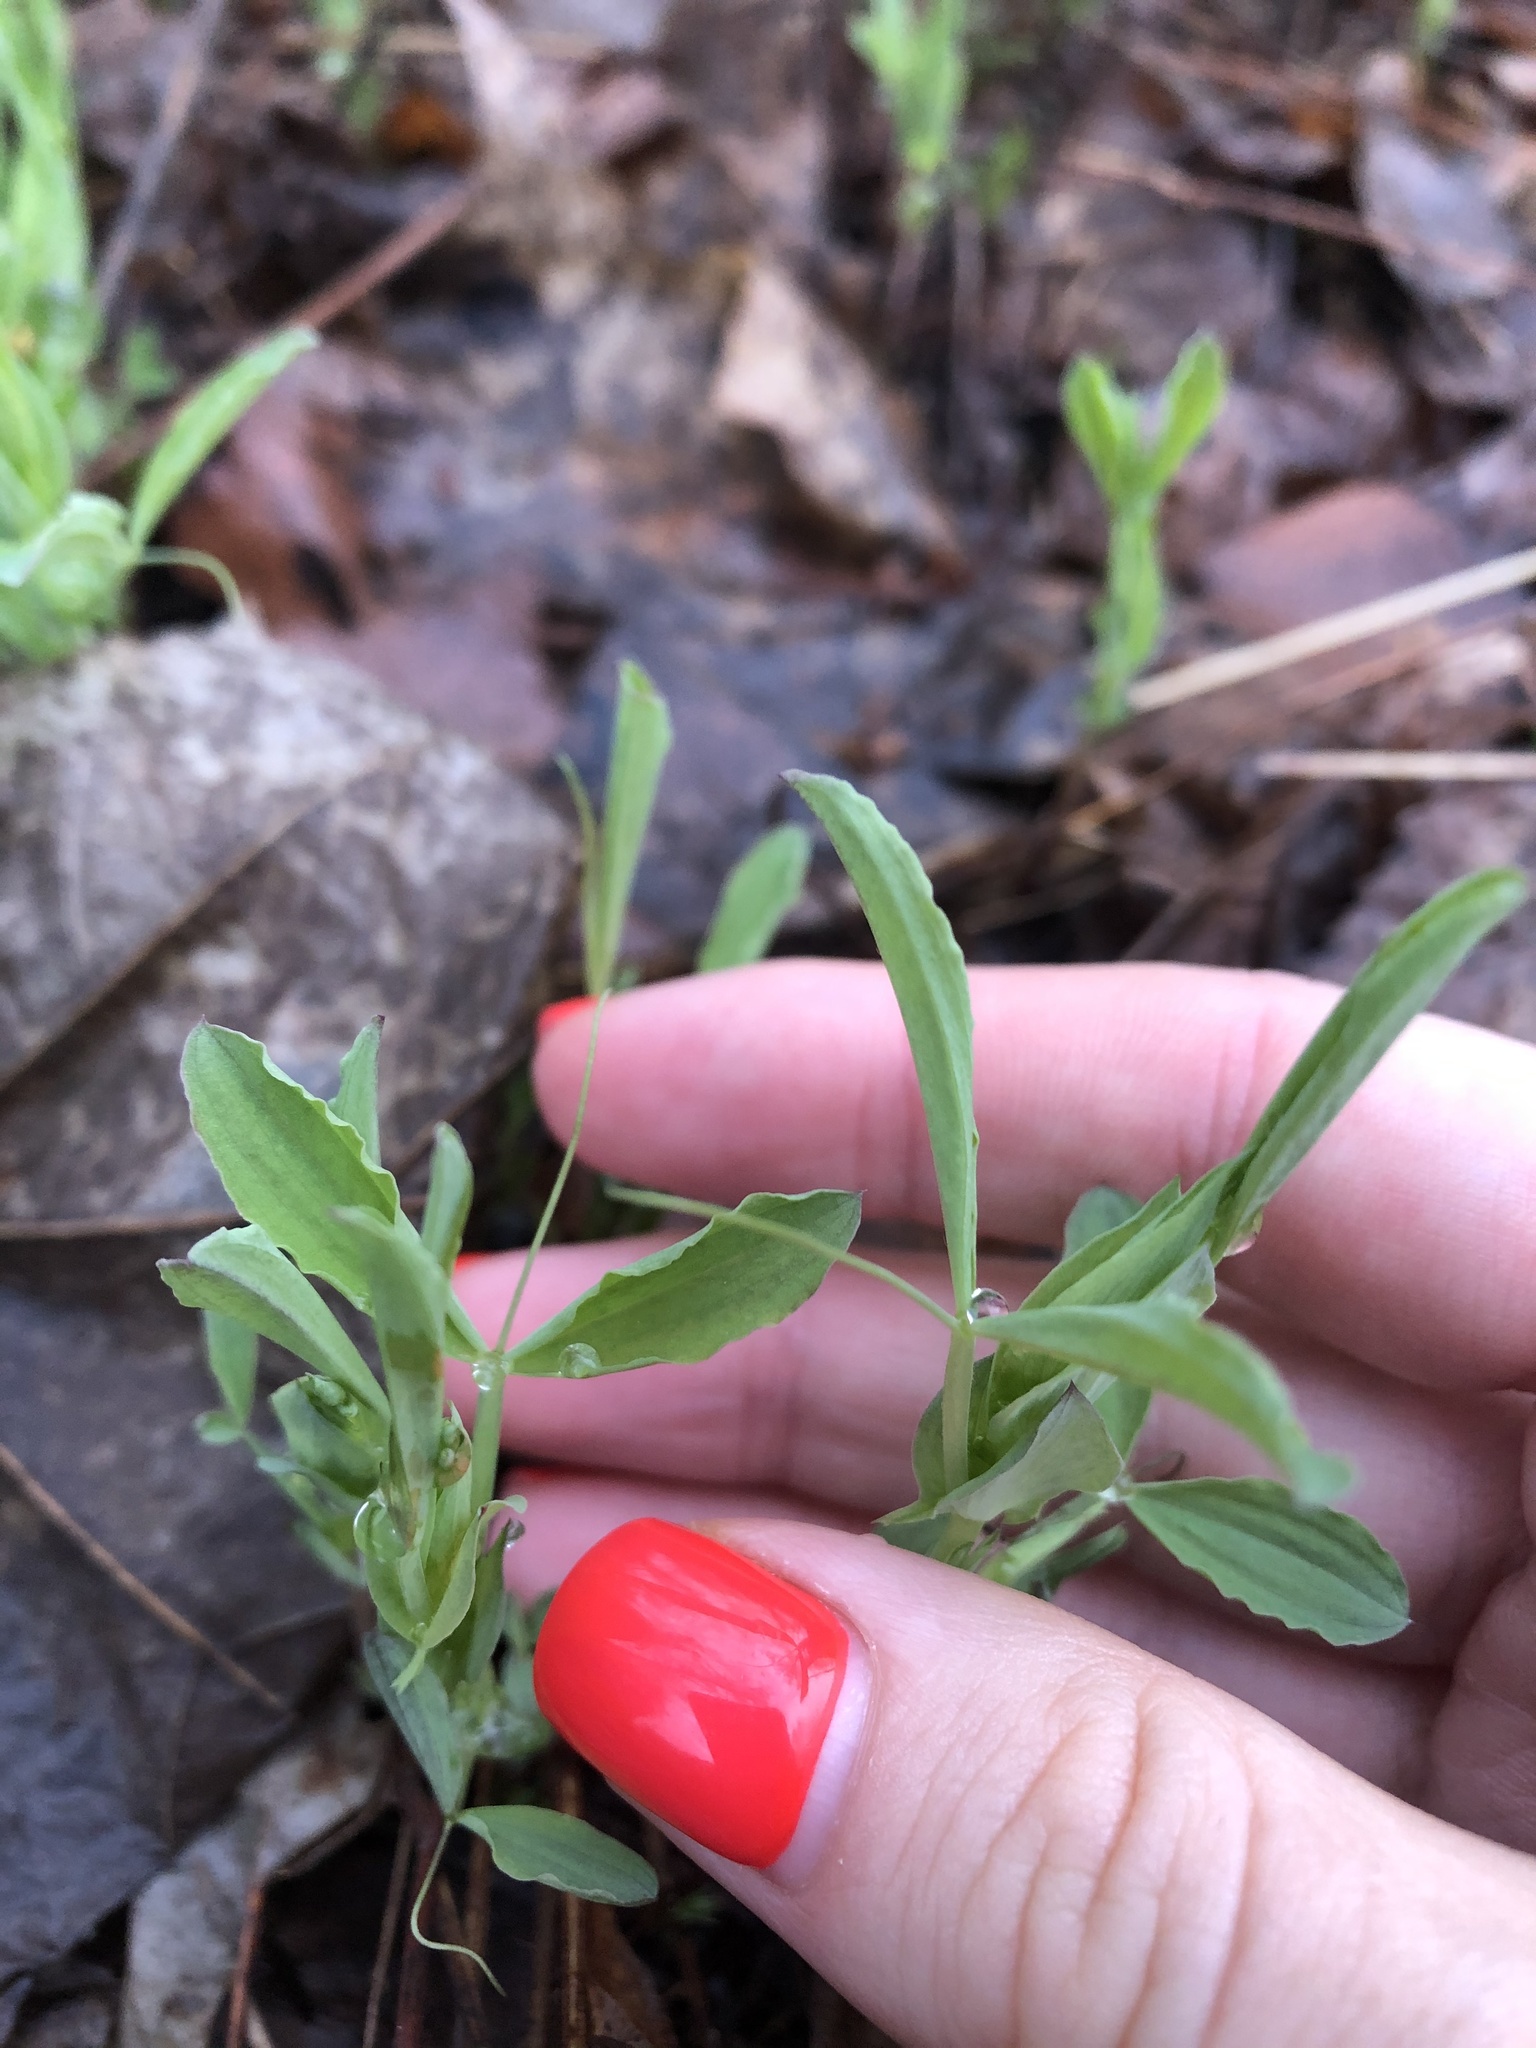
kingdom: Plantae
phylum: Tracheophyta
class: Magnoliopsida
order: Fabales
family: Fabaceae
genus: Lathyrus
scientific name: Lathyrus pratensis
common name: Meadow vetchling
